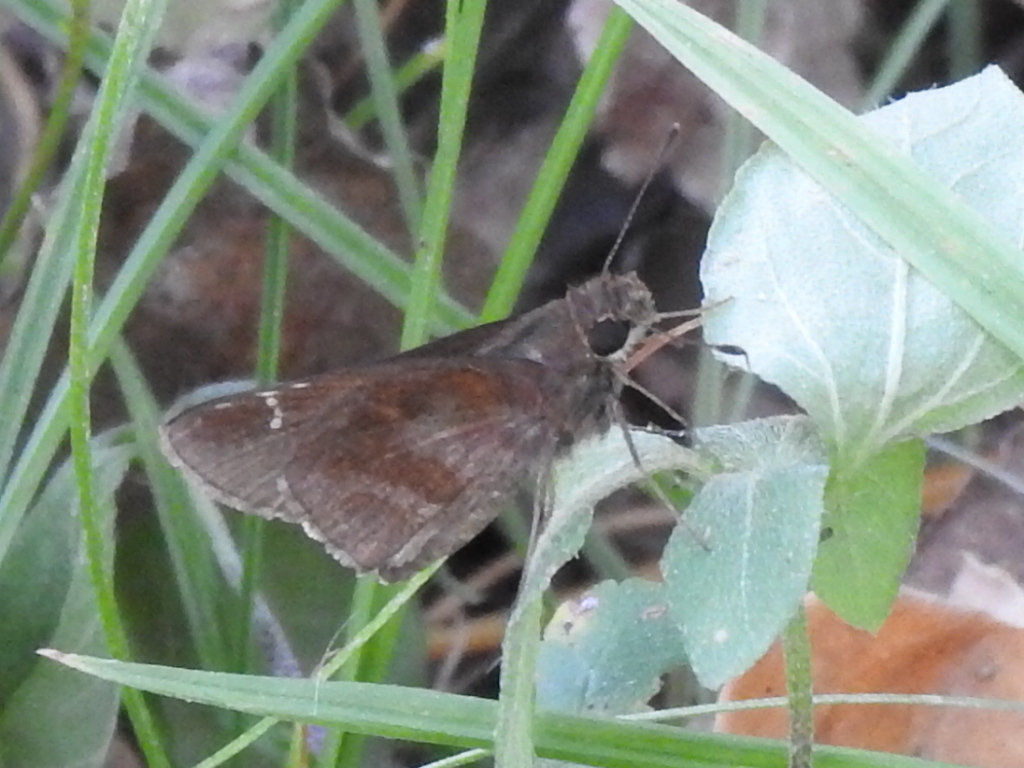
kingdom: Animalia
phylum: Arthropoda
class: Insecta
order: Lepidoptera
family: Hesperiidae
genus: Lerema
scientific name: Lerema accius
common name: Clouded skipper
